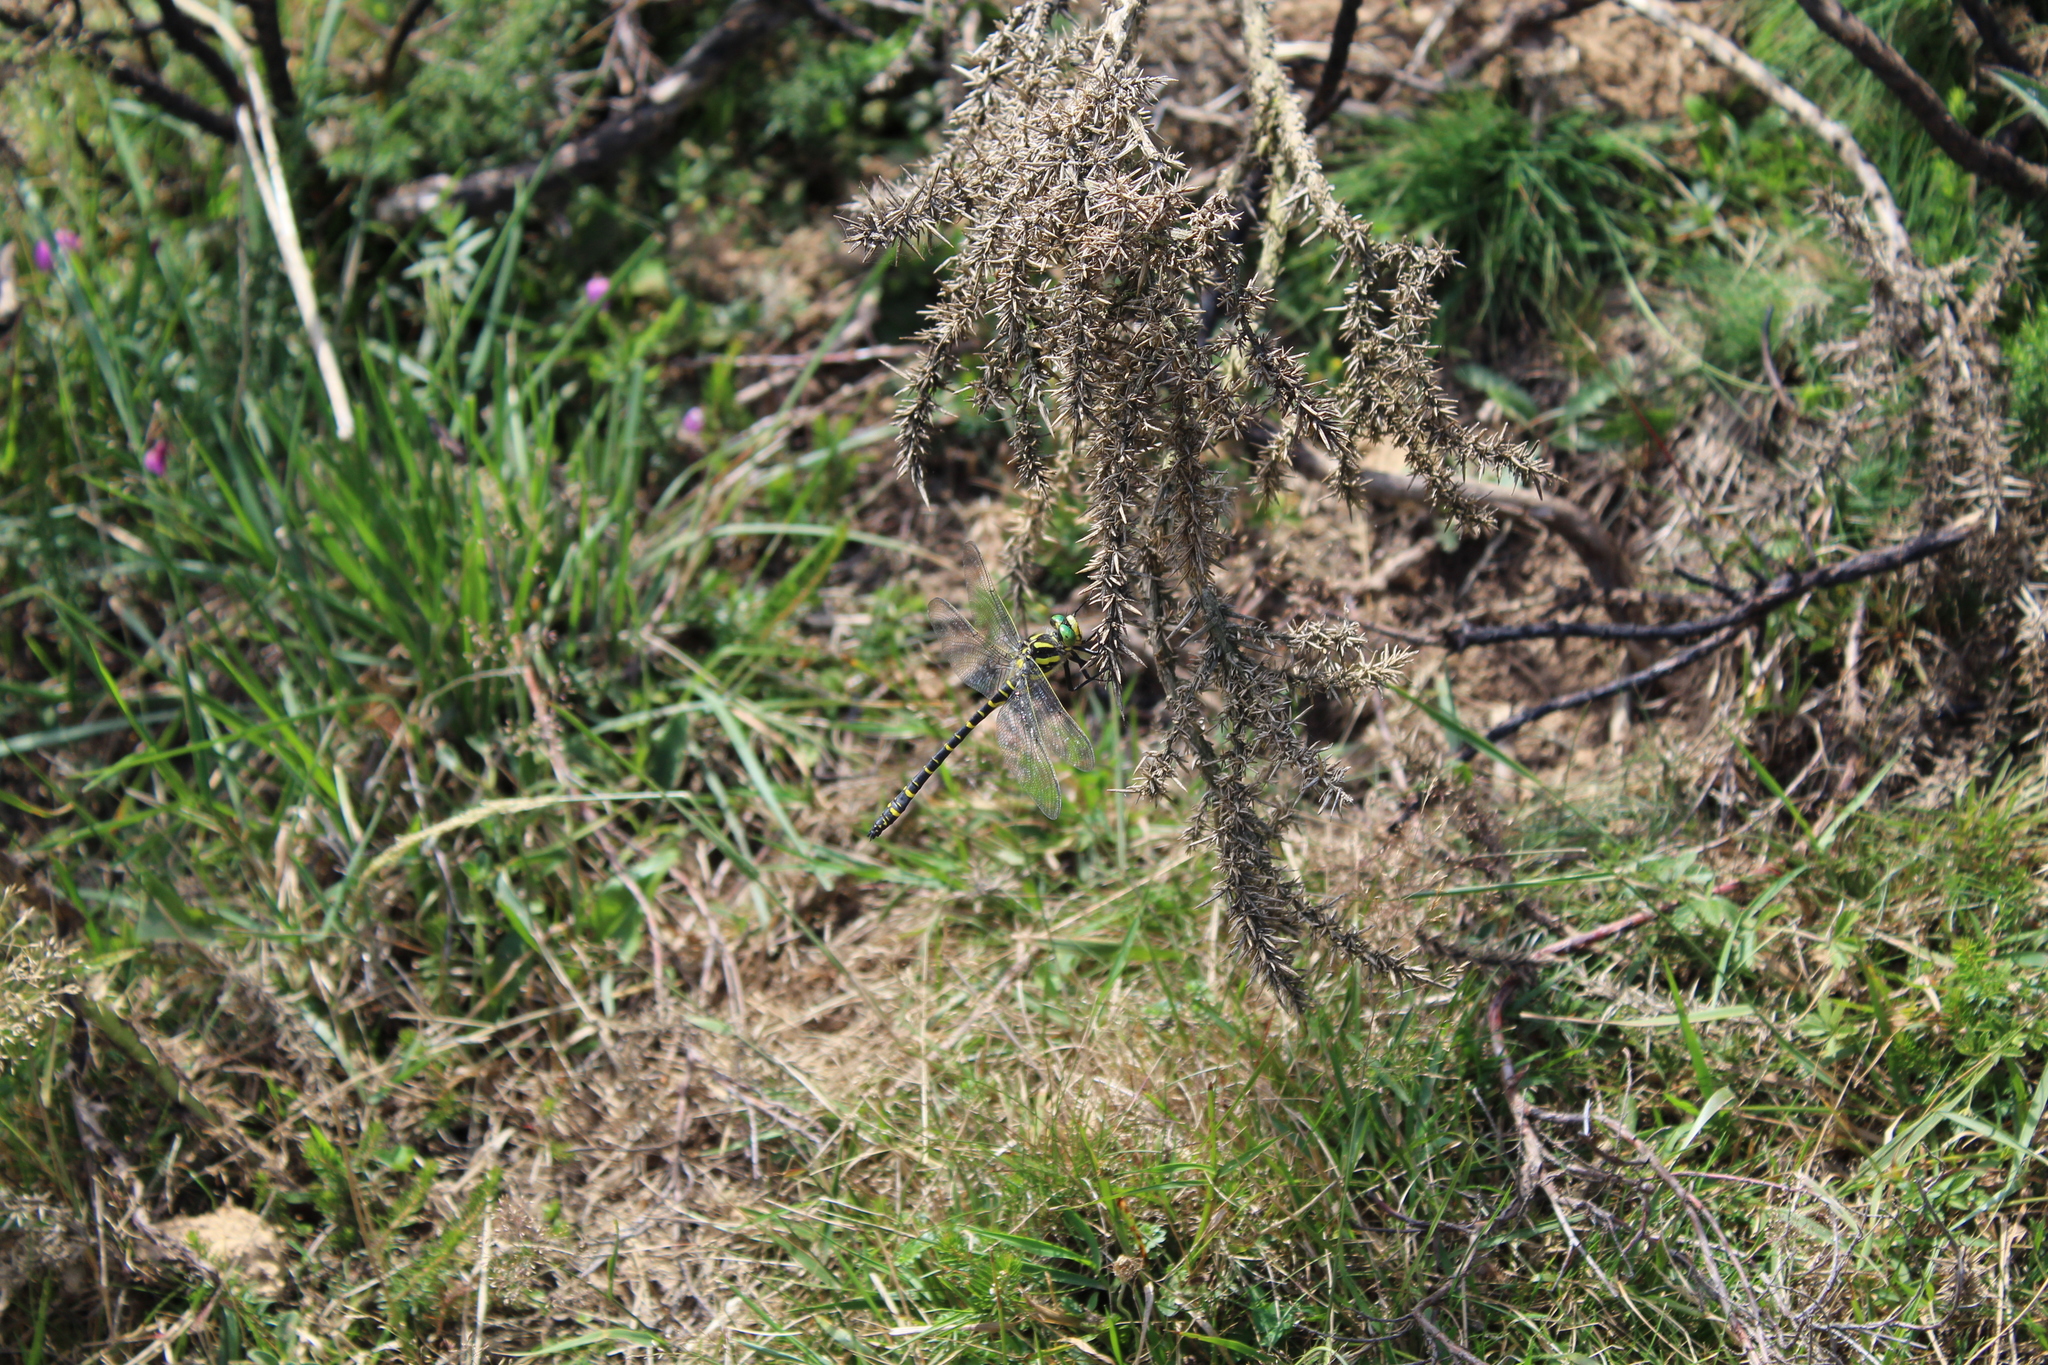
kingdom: Animalia
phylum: Arthropoda
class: Insecta
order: Odonata
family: Cordulegastridae
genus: Cordulegaster
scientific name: Cordulegaster boltonii
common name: Golden-ringed dragonfly
